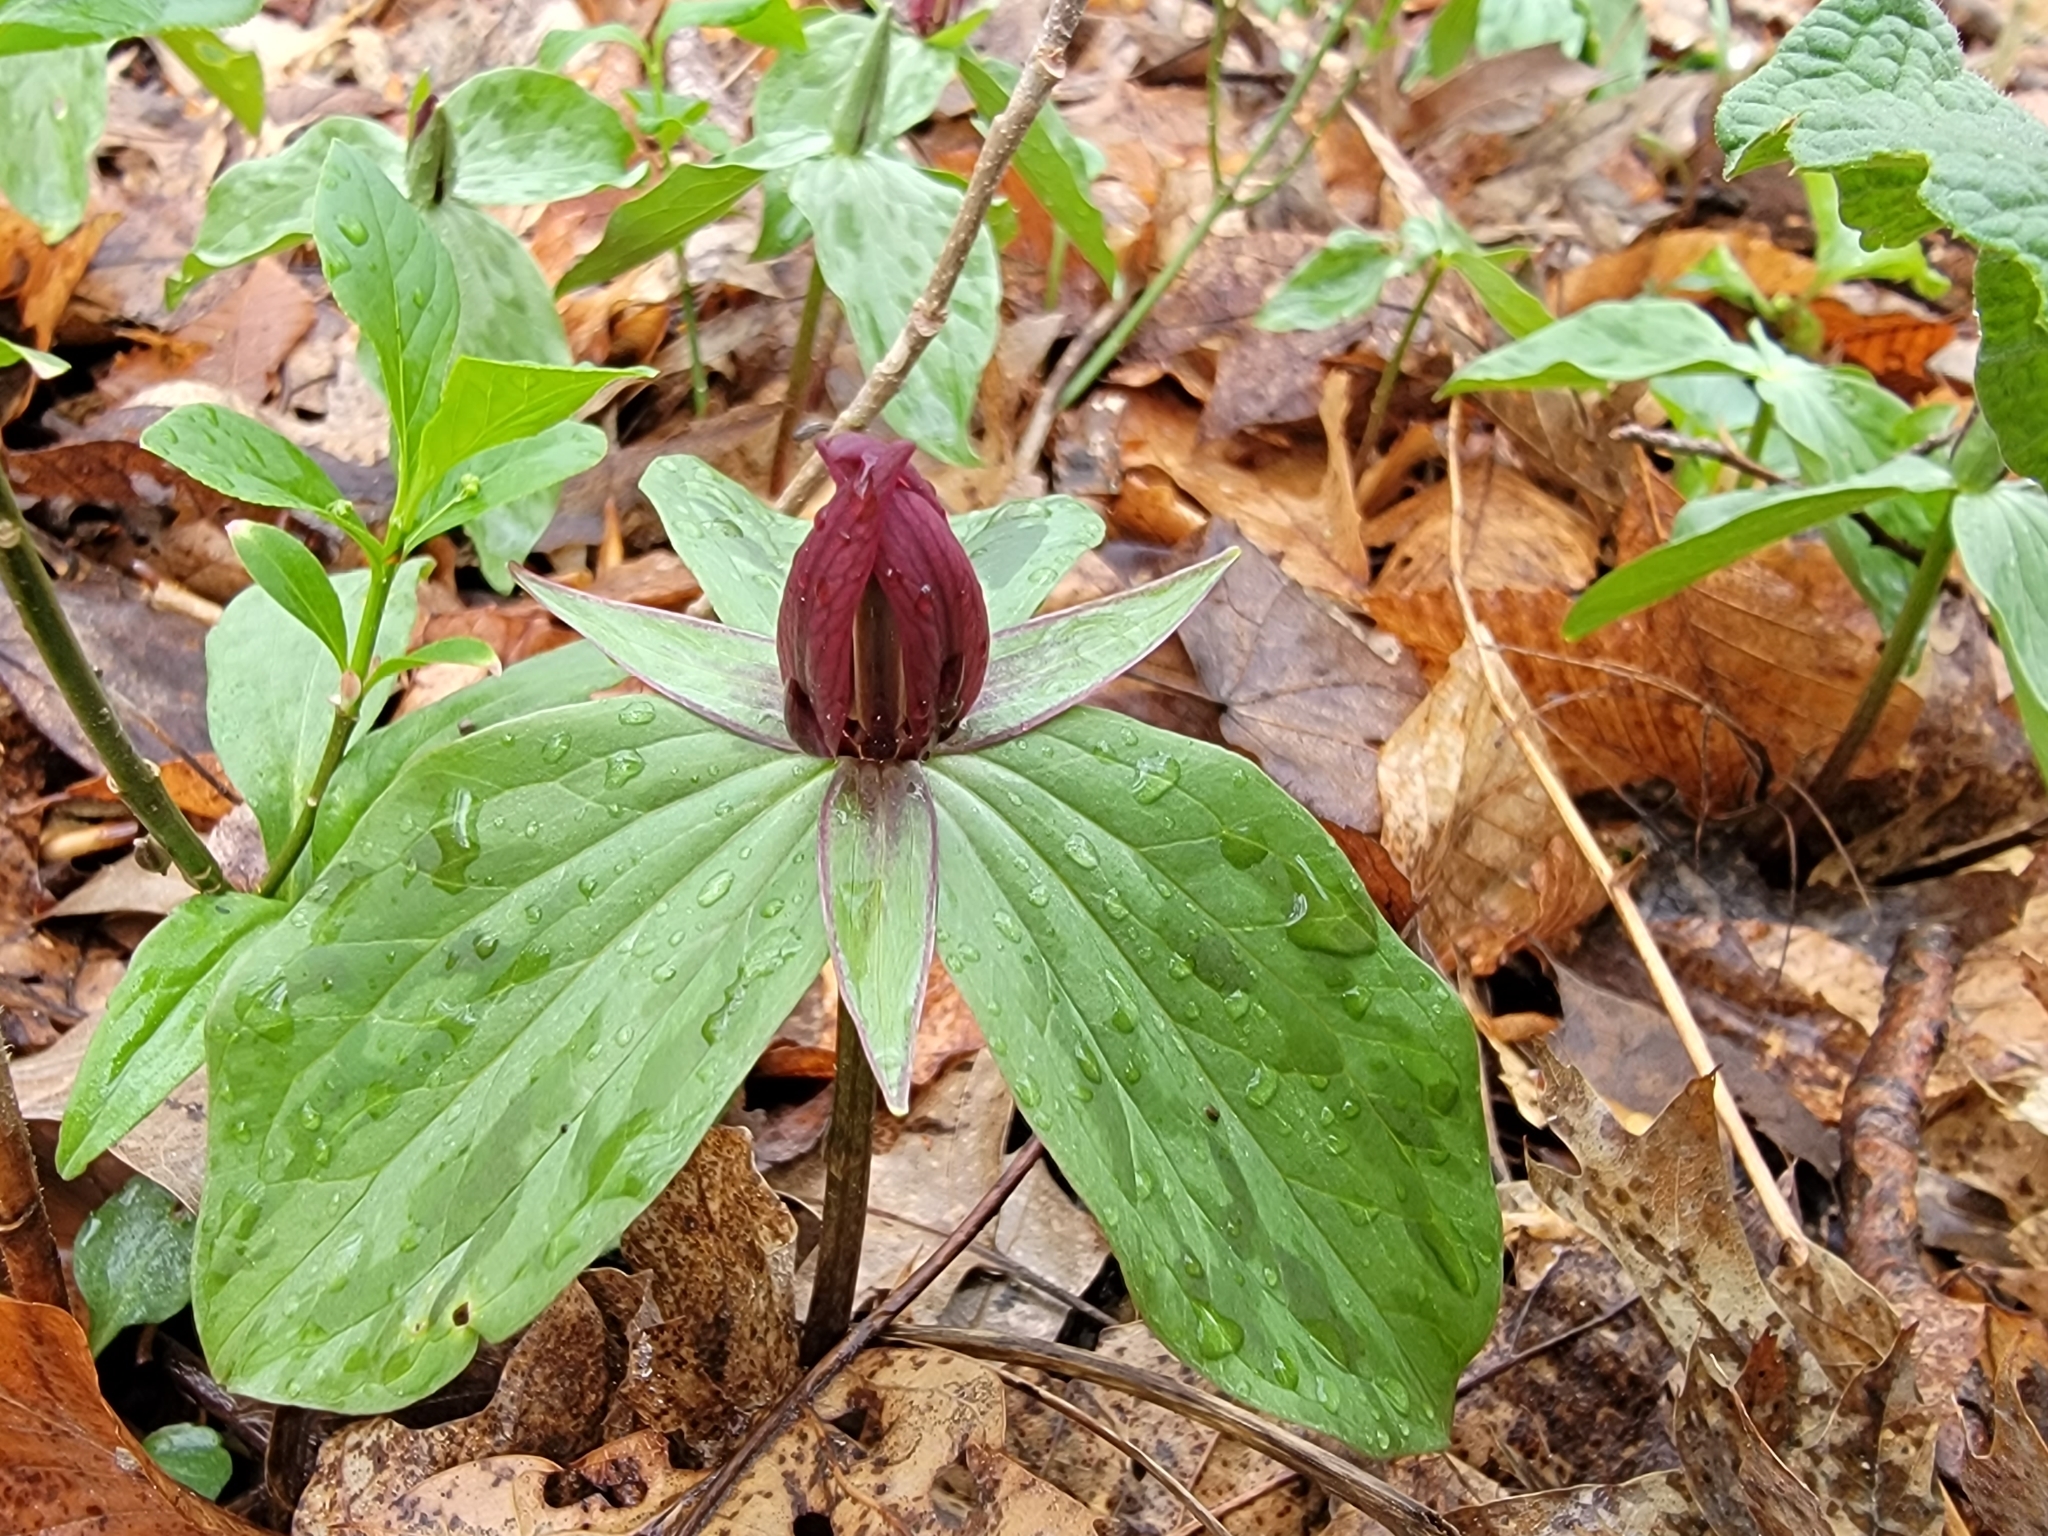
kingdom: Plantae
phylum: Tracheophyta
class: Liliopsida
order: Liliales
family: Melanthiaceae
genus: Trillium
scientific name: Trillium sessile
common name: Sessile trillium
